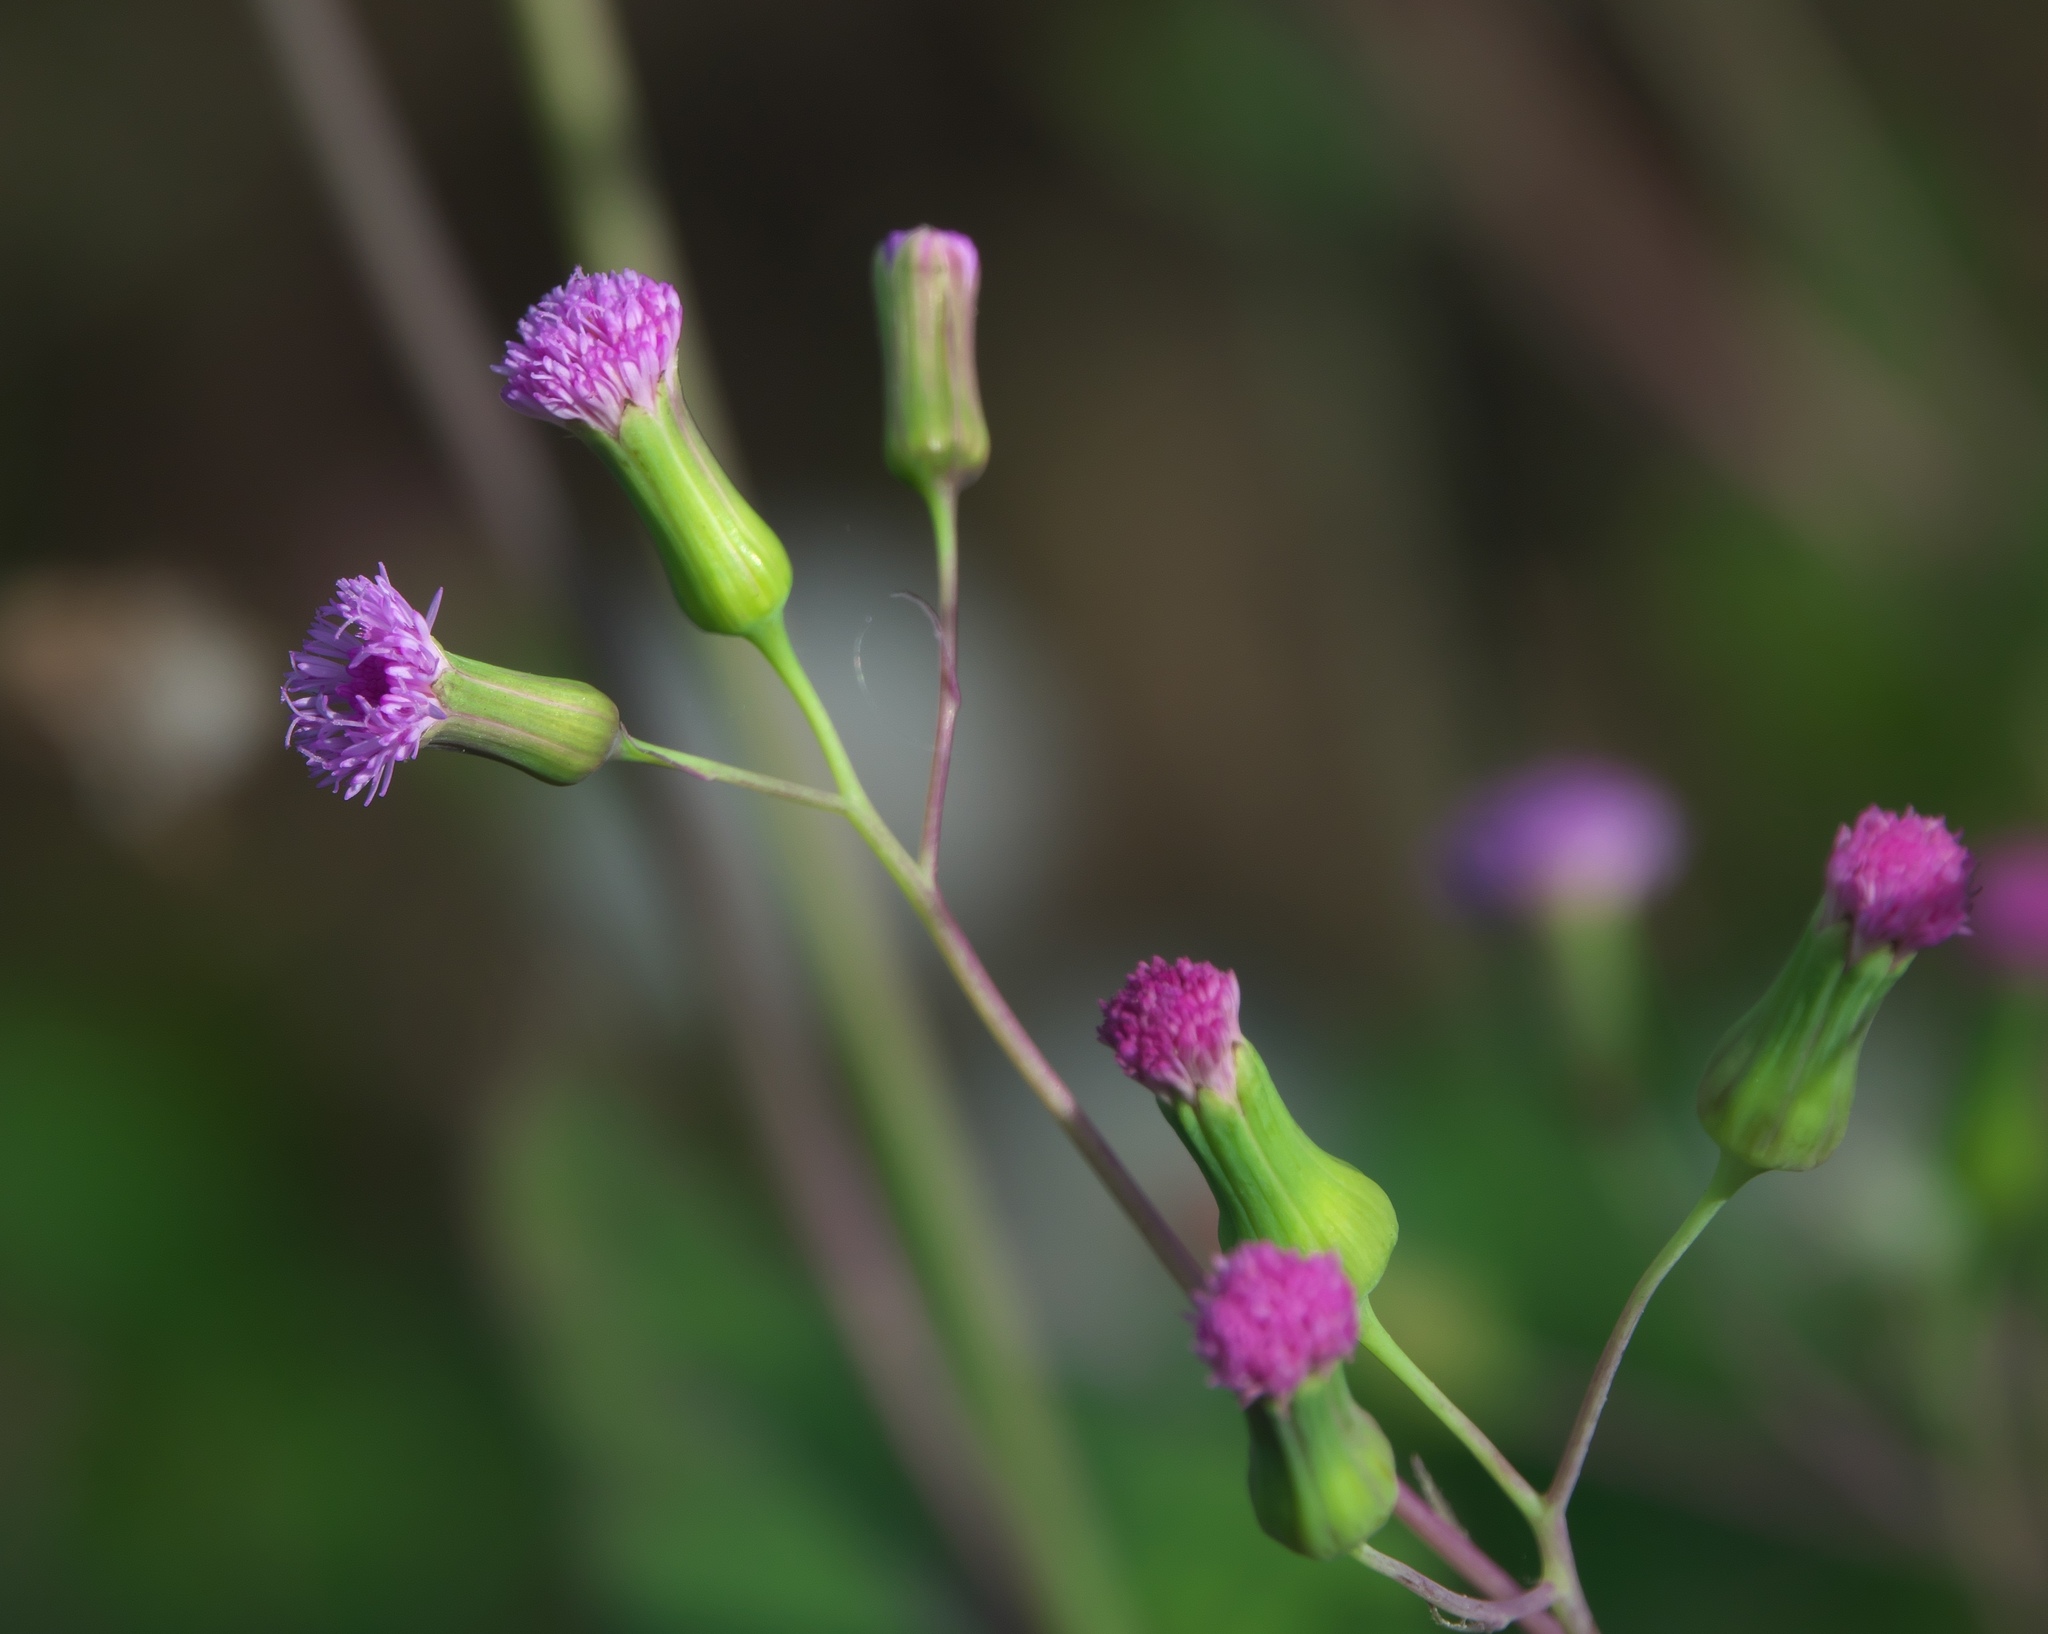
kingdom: Plantae
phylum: Tracheophyta
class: Magnoliopsida
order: Asterales
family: Asteraceae
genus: Emilia
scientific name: Emilia sonchifolia
